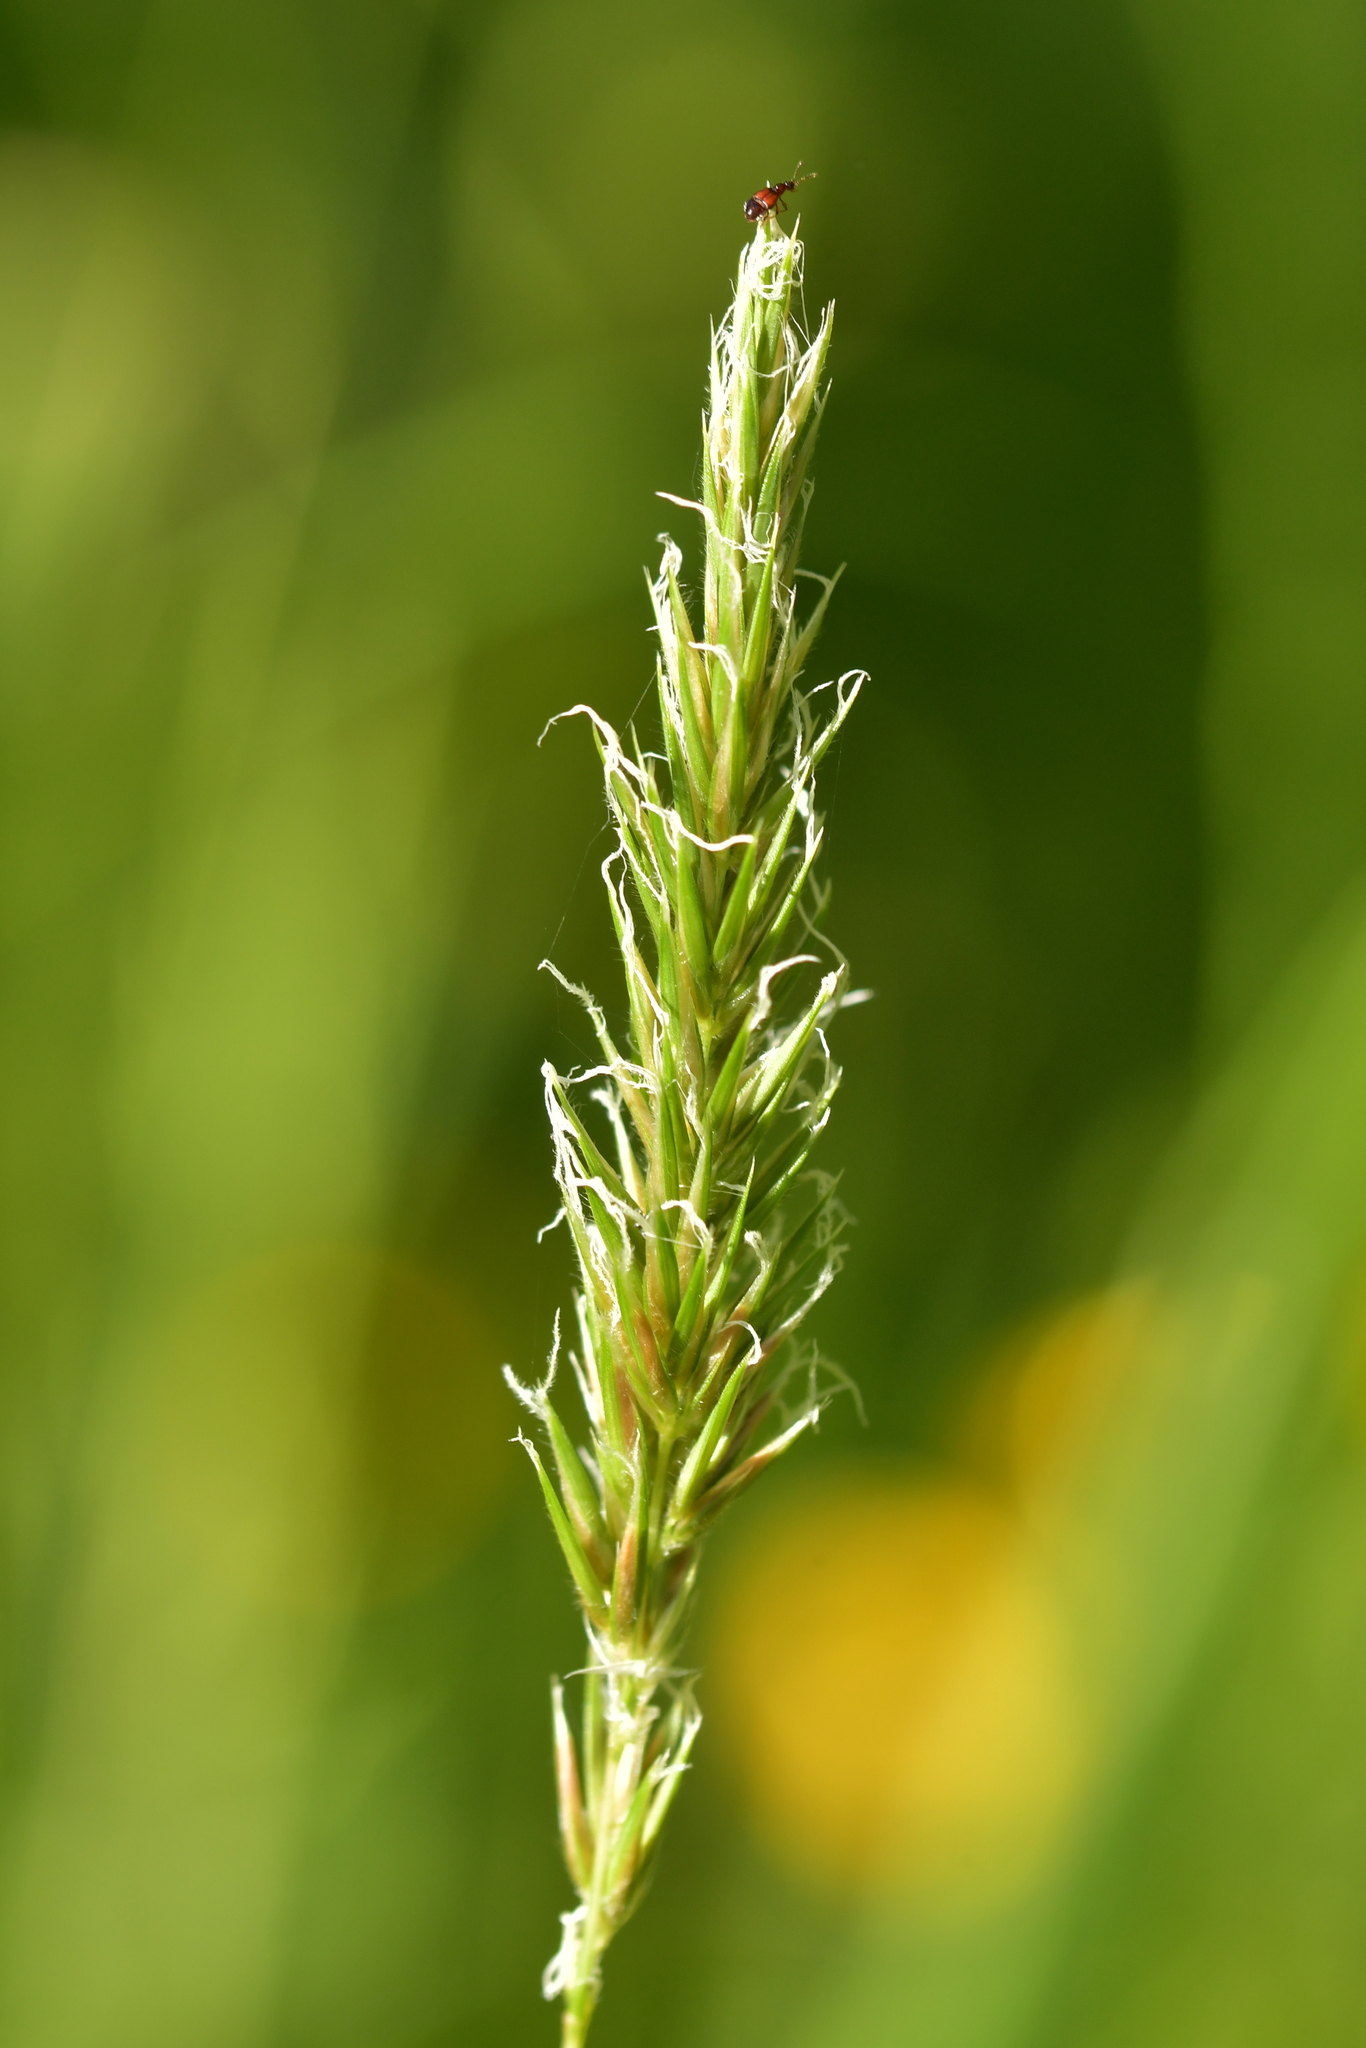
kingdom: Plantae
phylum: Tracheophyta
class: Liliopsida
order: Poales
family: Poaceae
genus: Anthoxanthum
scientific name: Anthoxanthum odoratum
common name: Sweet vernalgrass
